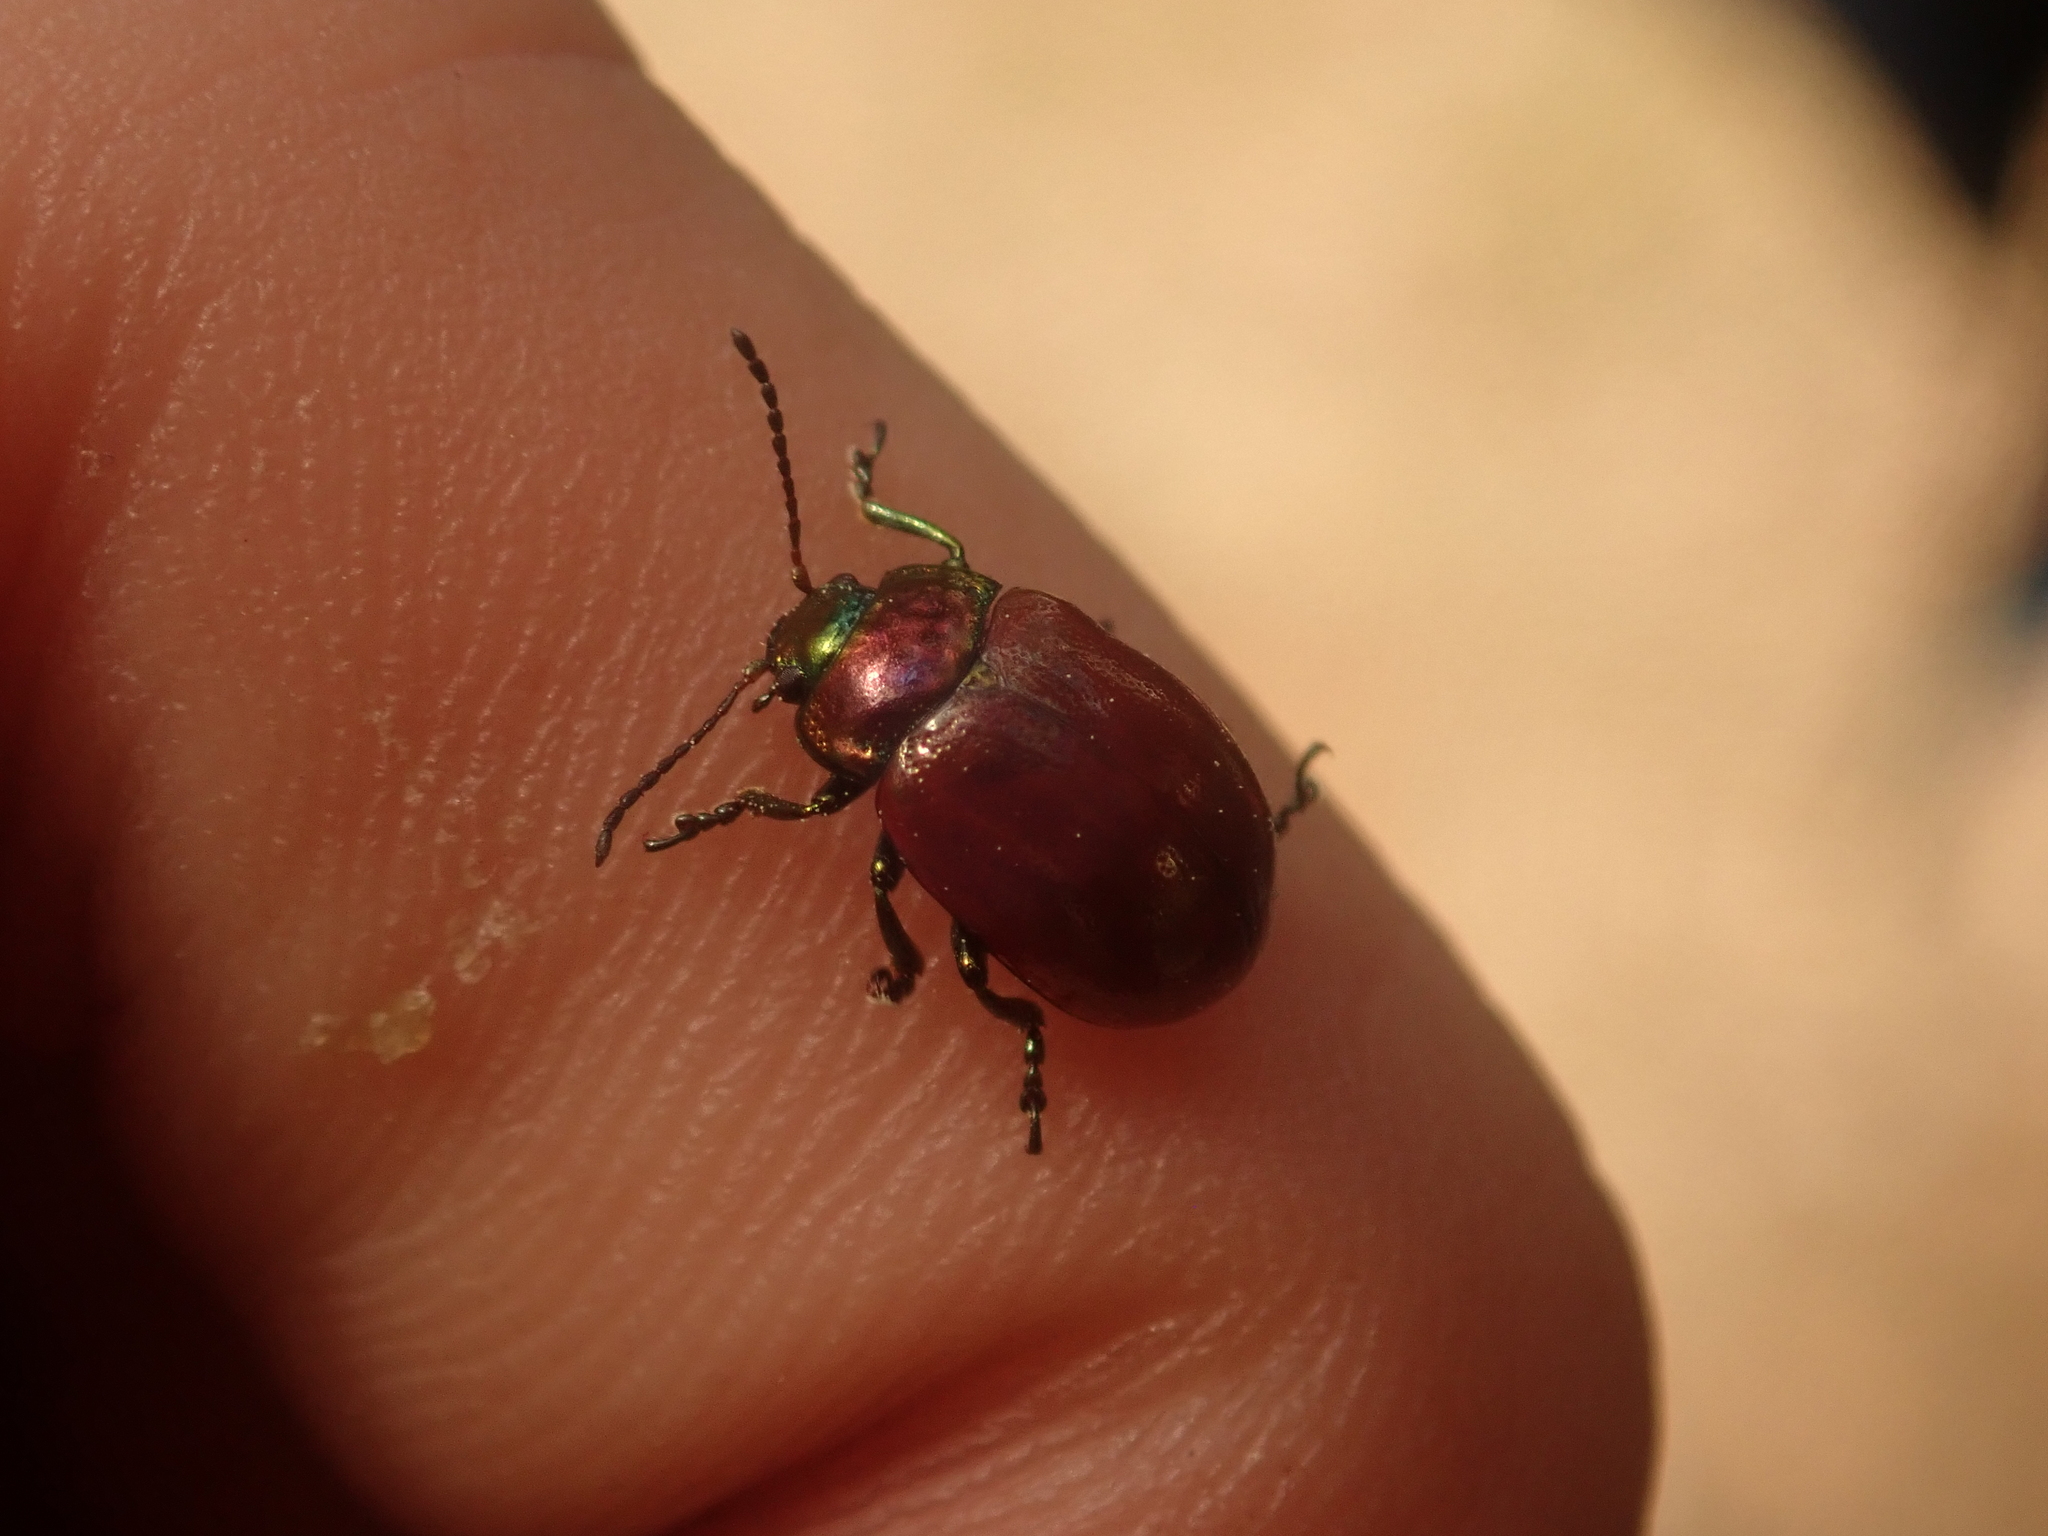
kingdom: Animalia
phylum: Arthropoda
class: Insecta
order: Coleoptera
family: Chrysomelidae
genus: Chrysomela
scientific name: Chrysomela polita
